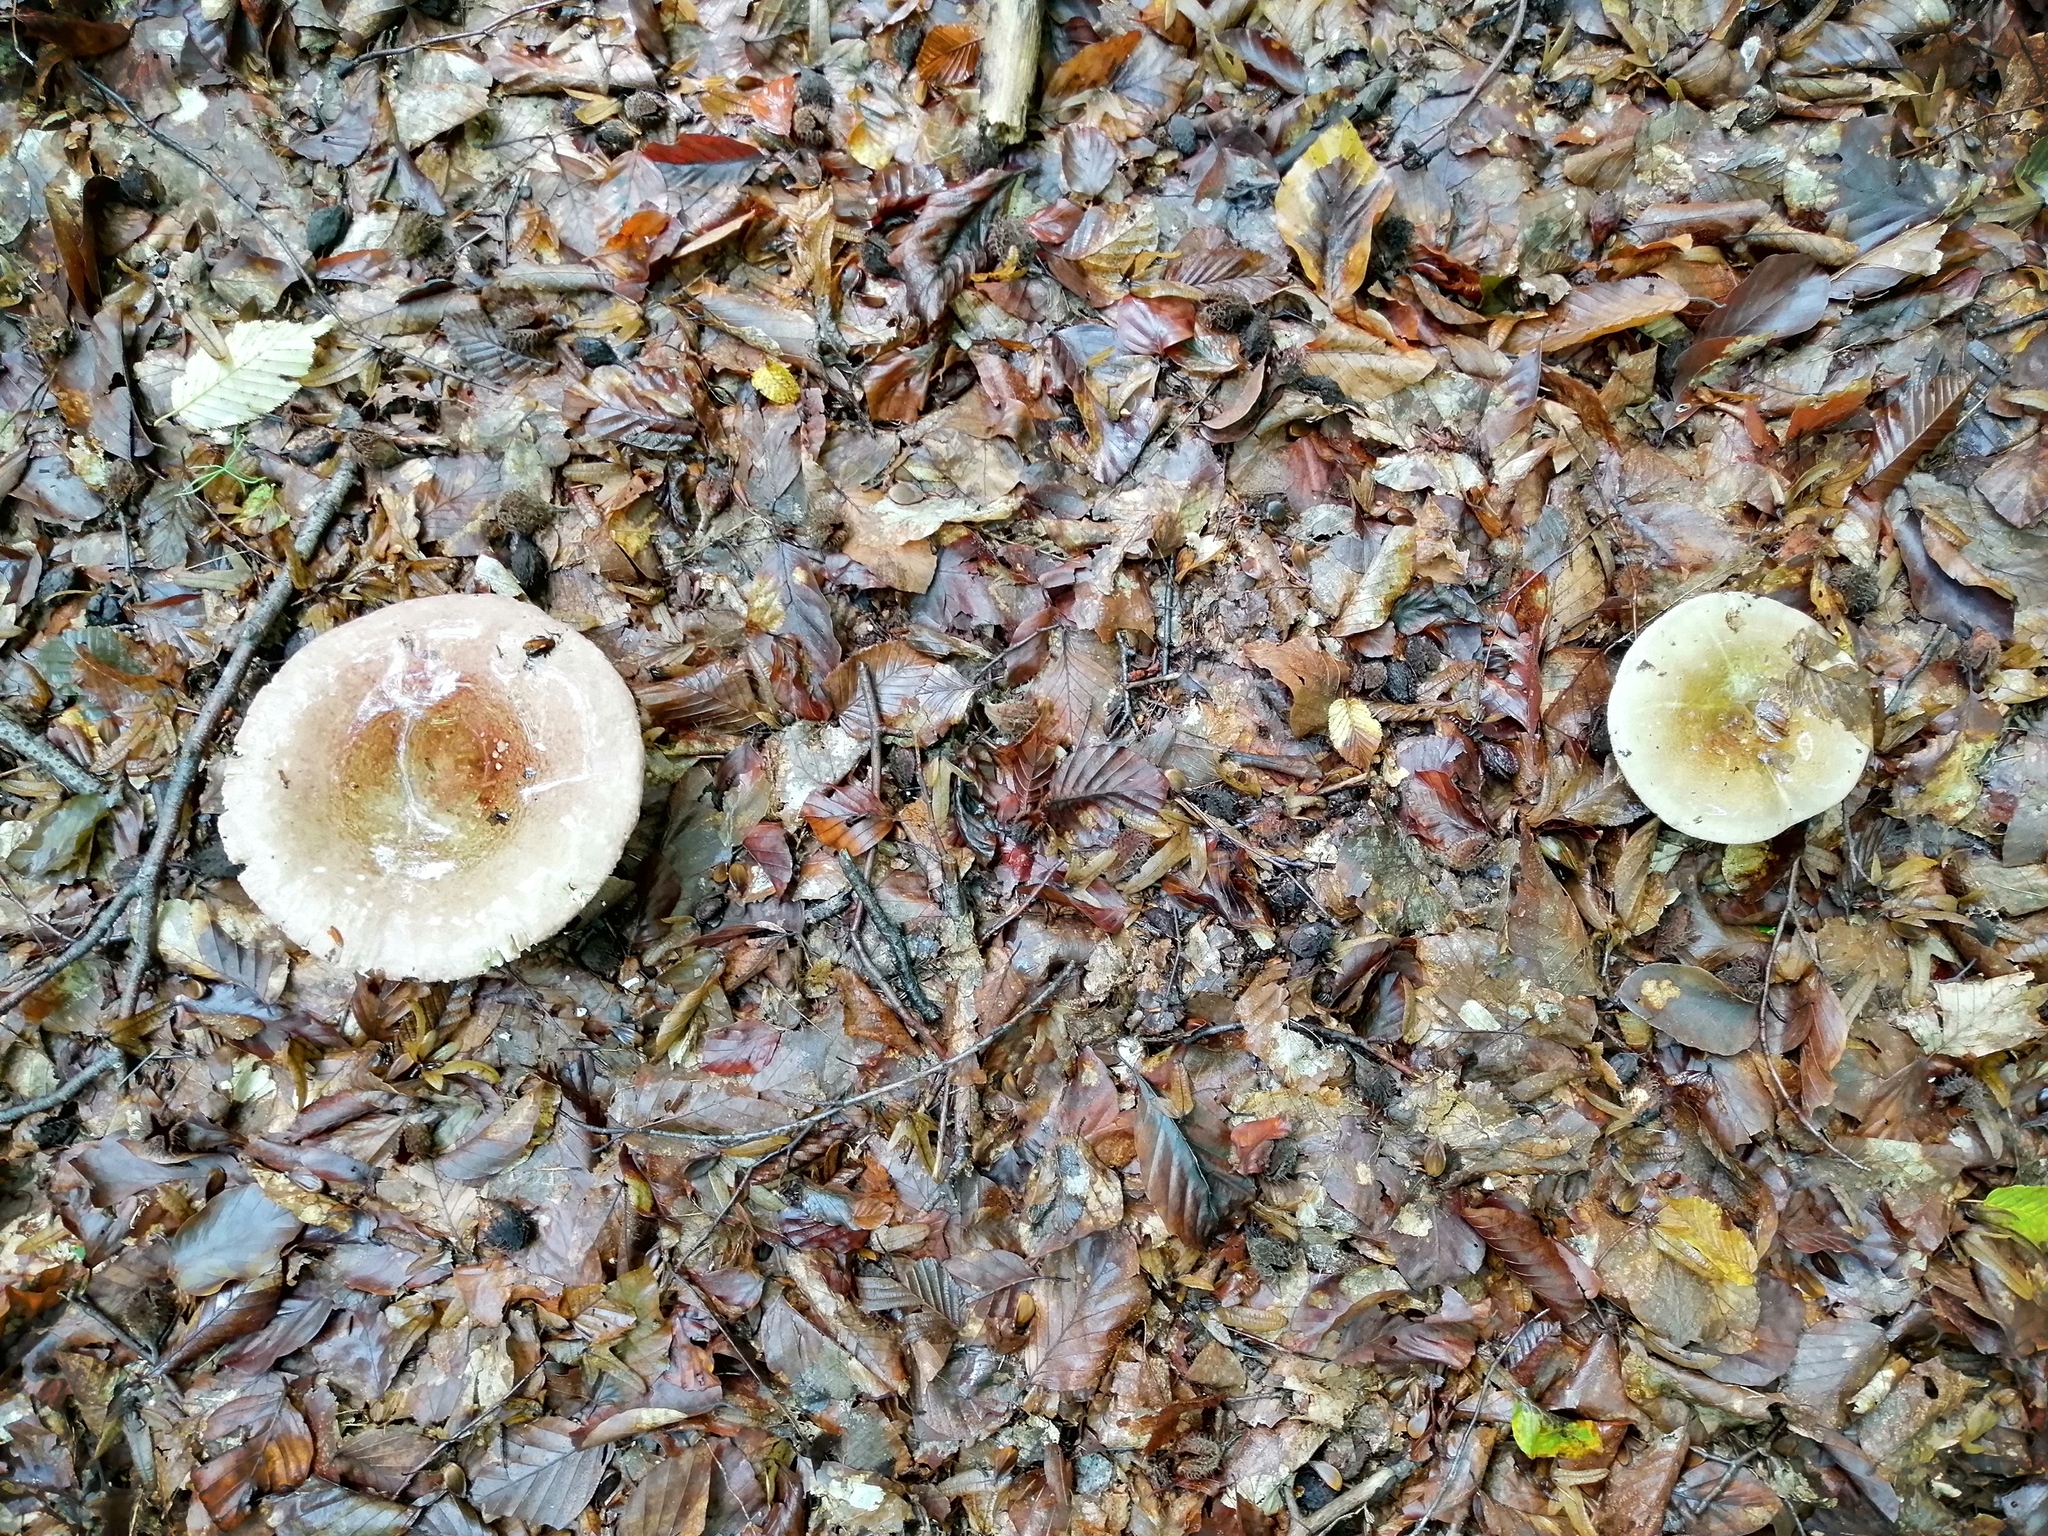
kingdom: Fungi
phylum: Basidiomycota
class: Agaricomycetes
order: Russulales
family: Russulaceae
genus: Russula
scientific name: Russula olivacea
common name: Olive brittlegill
